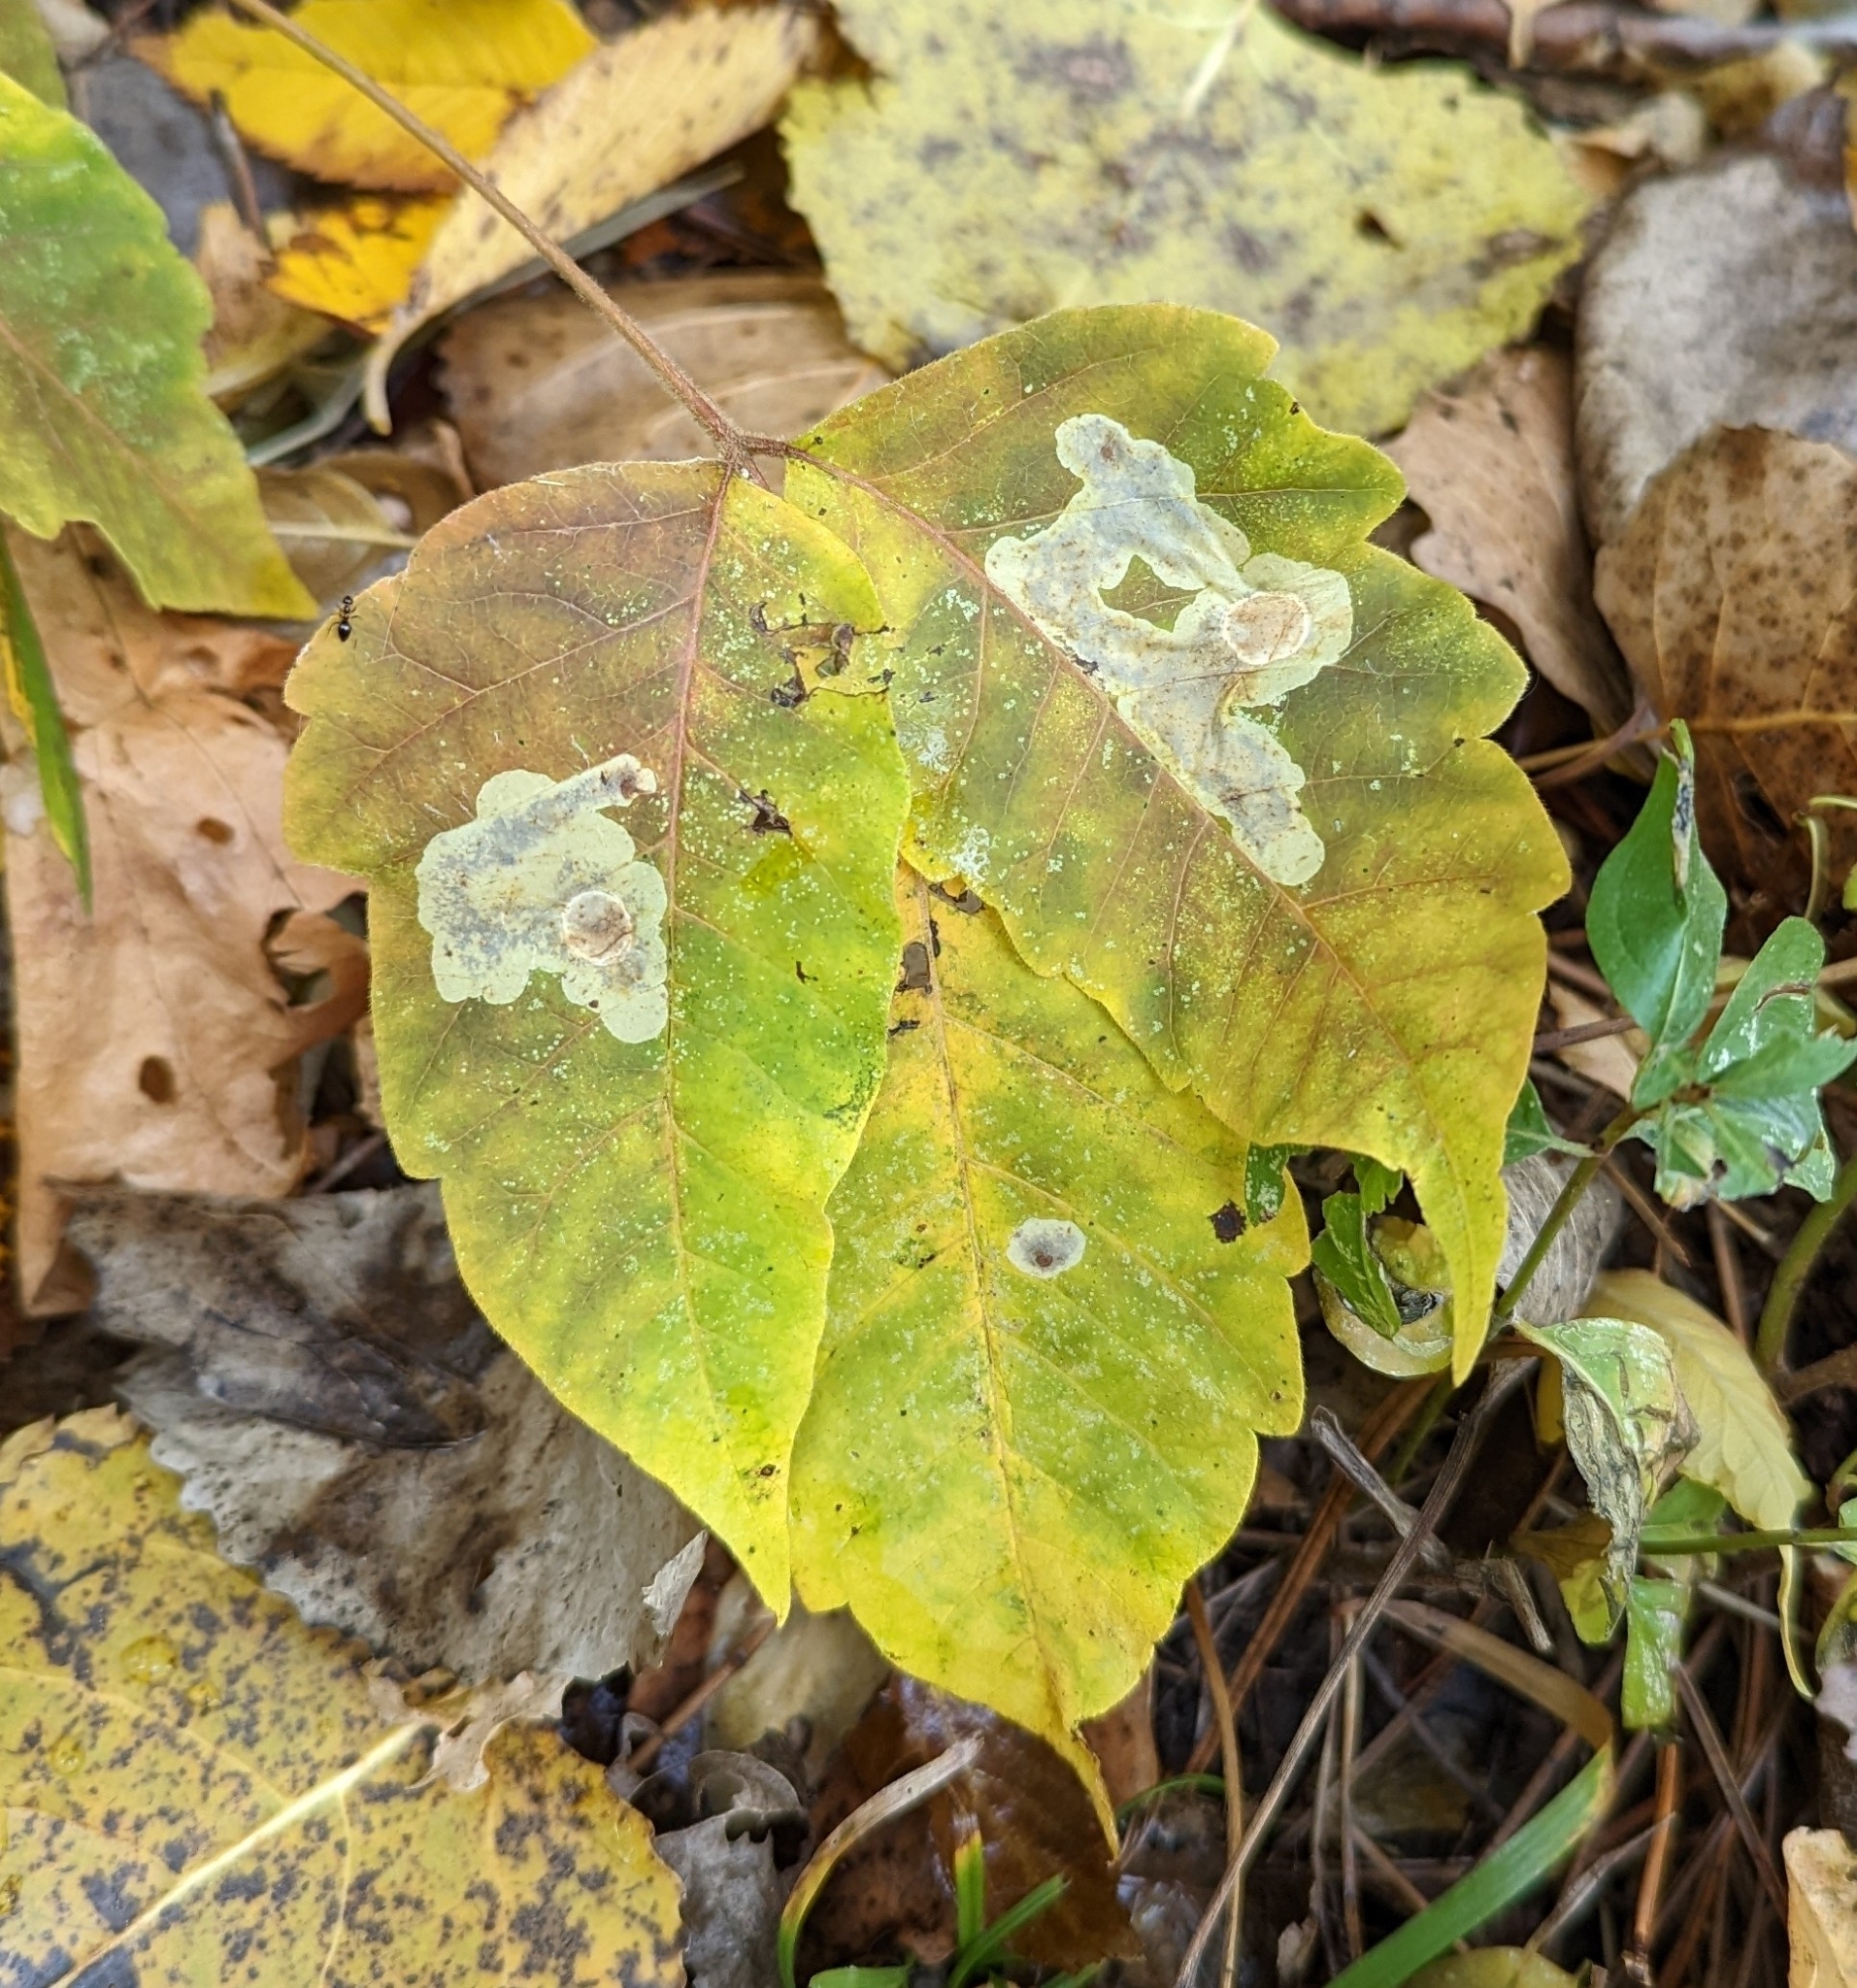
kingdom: Animalia
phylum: Arthropoda
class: Insecta
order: Lepidoptera
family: Gracillariidae
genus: Cameraria
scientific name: Cameraria guttifinitella
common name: Poison ivy leaf-miner moth
